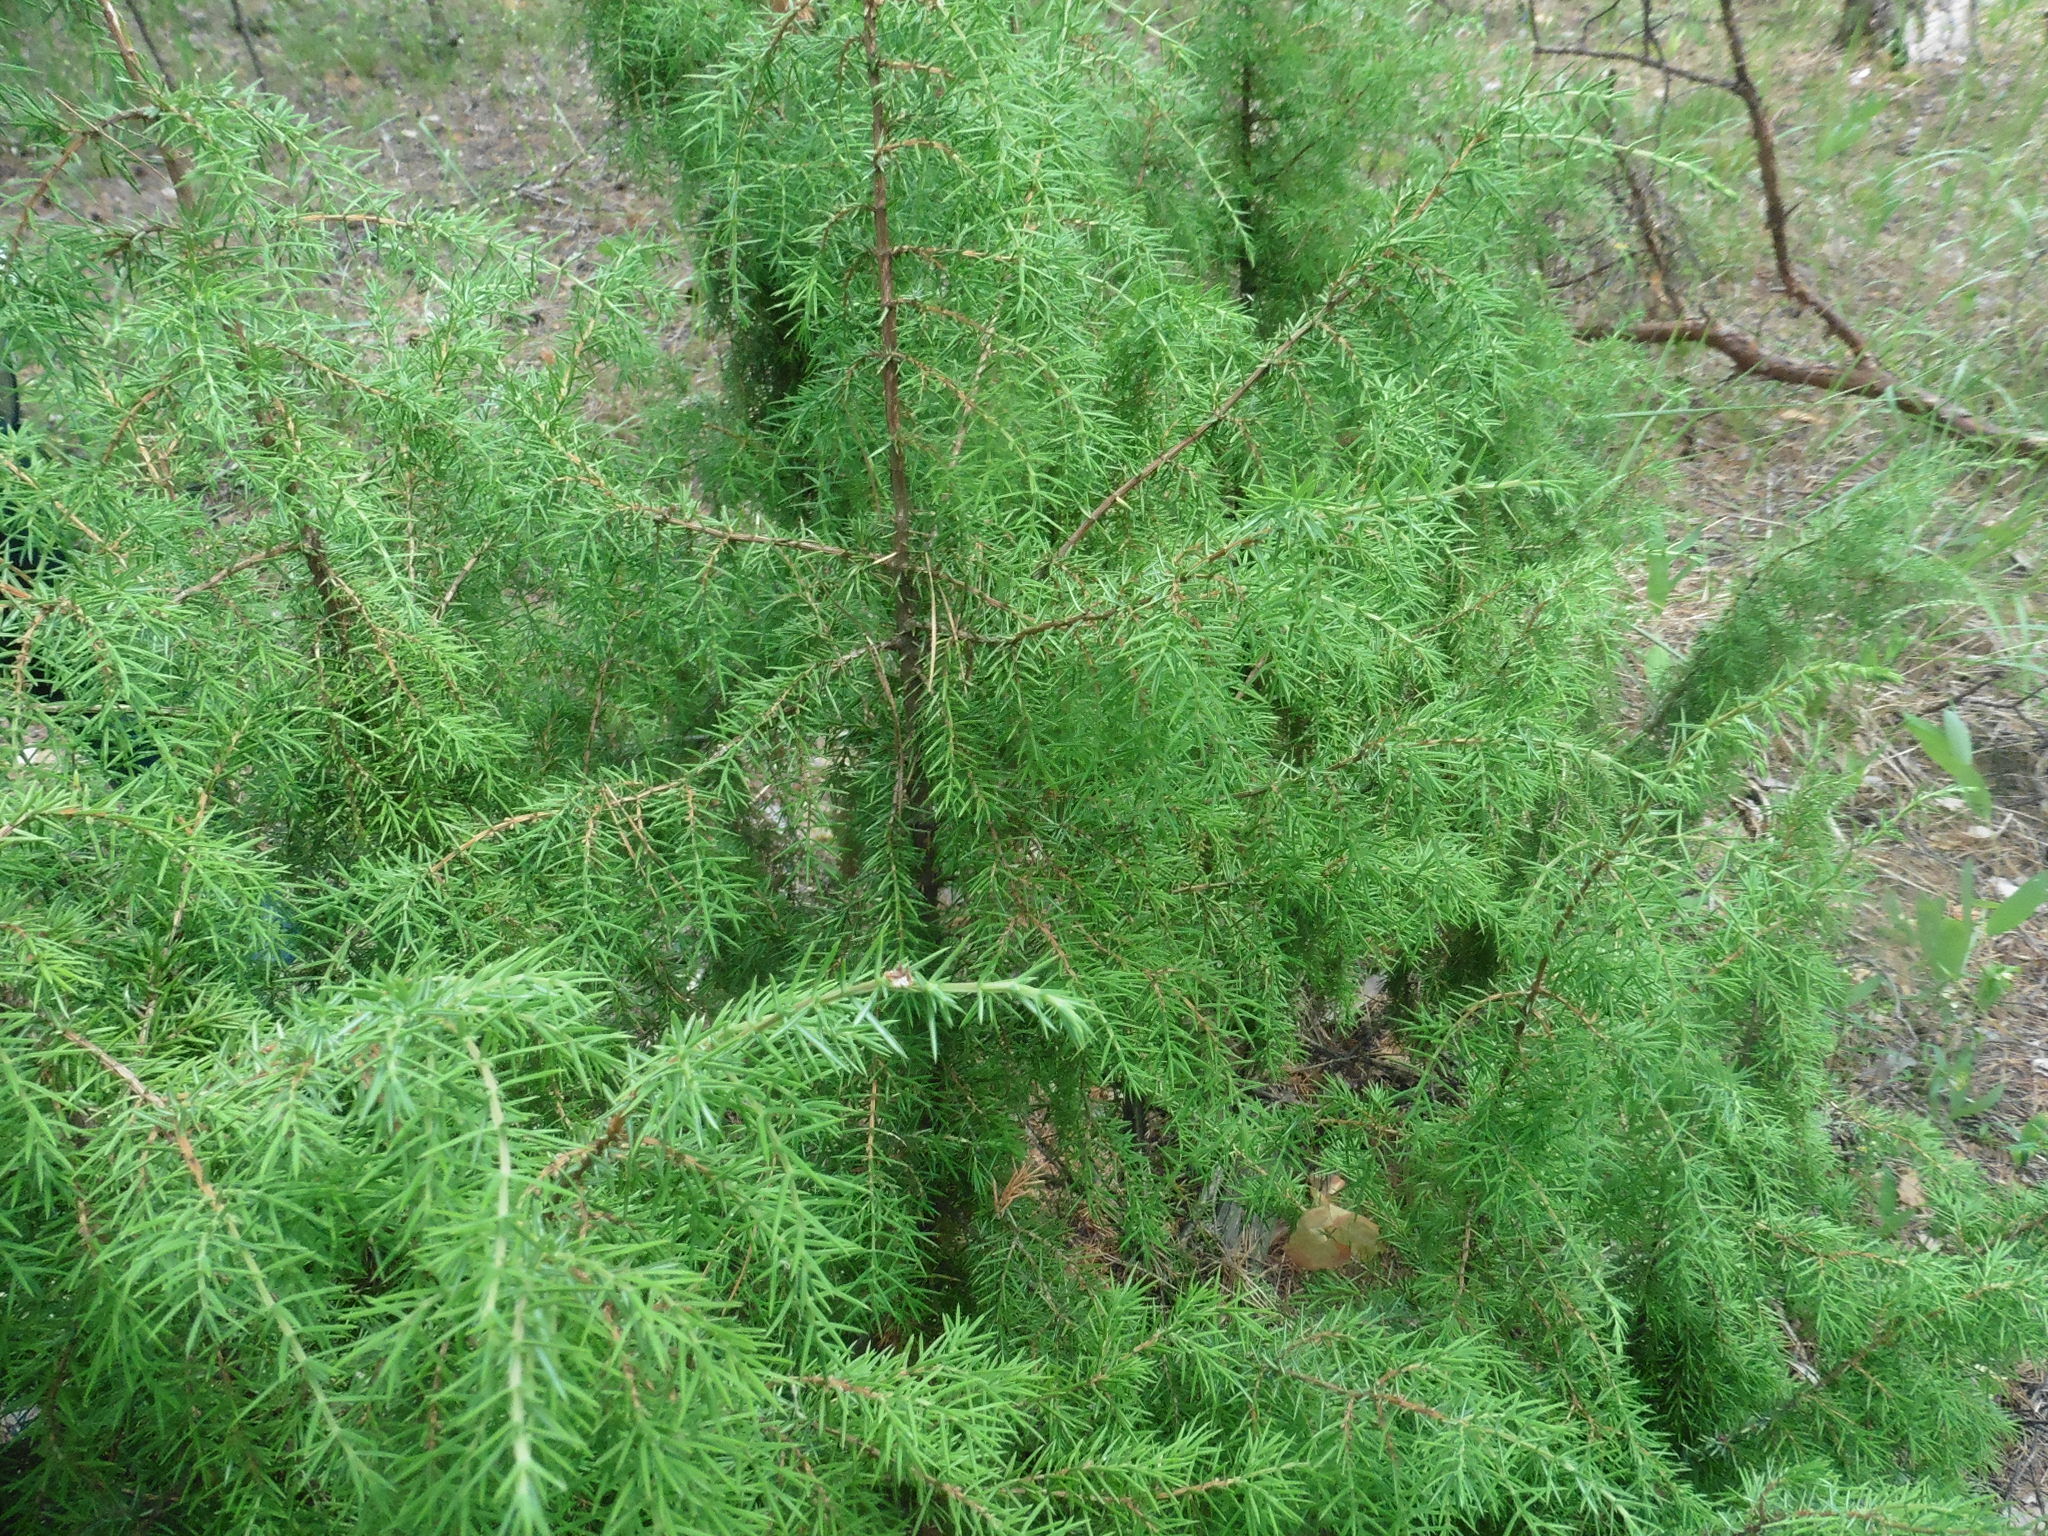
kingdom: Plantae
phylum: Tracheophyta
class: Pinopsida
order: Pinales
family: Cupressaceae
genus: Juniperus
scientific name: Juniperus communis
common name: Common juniper
